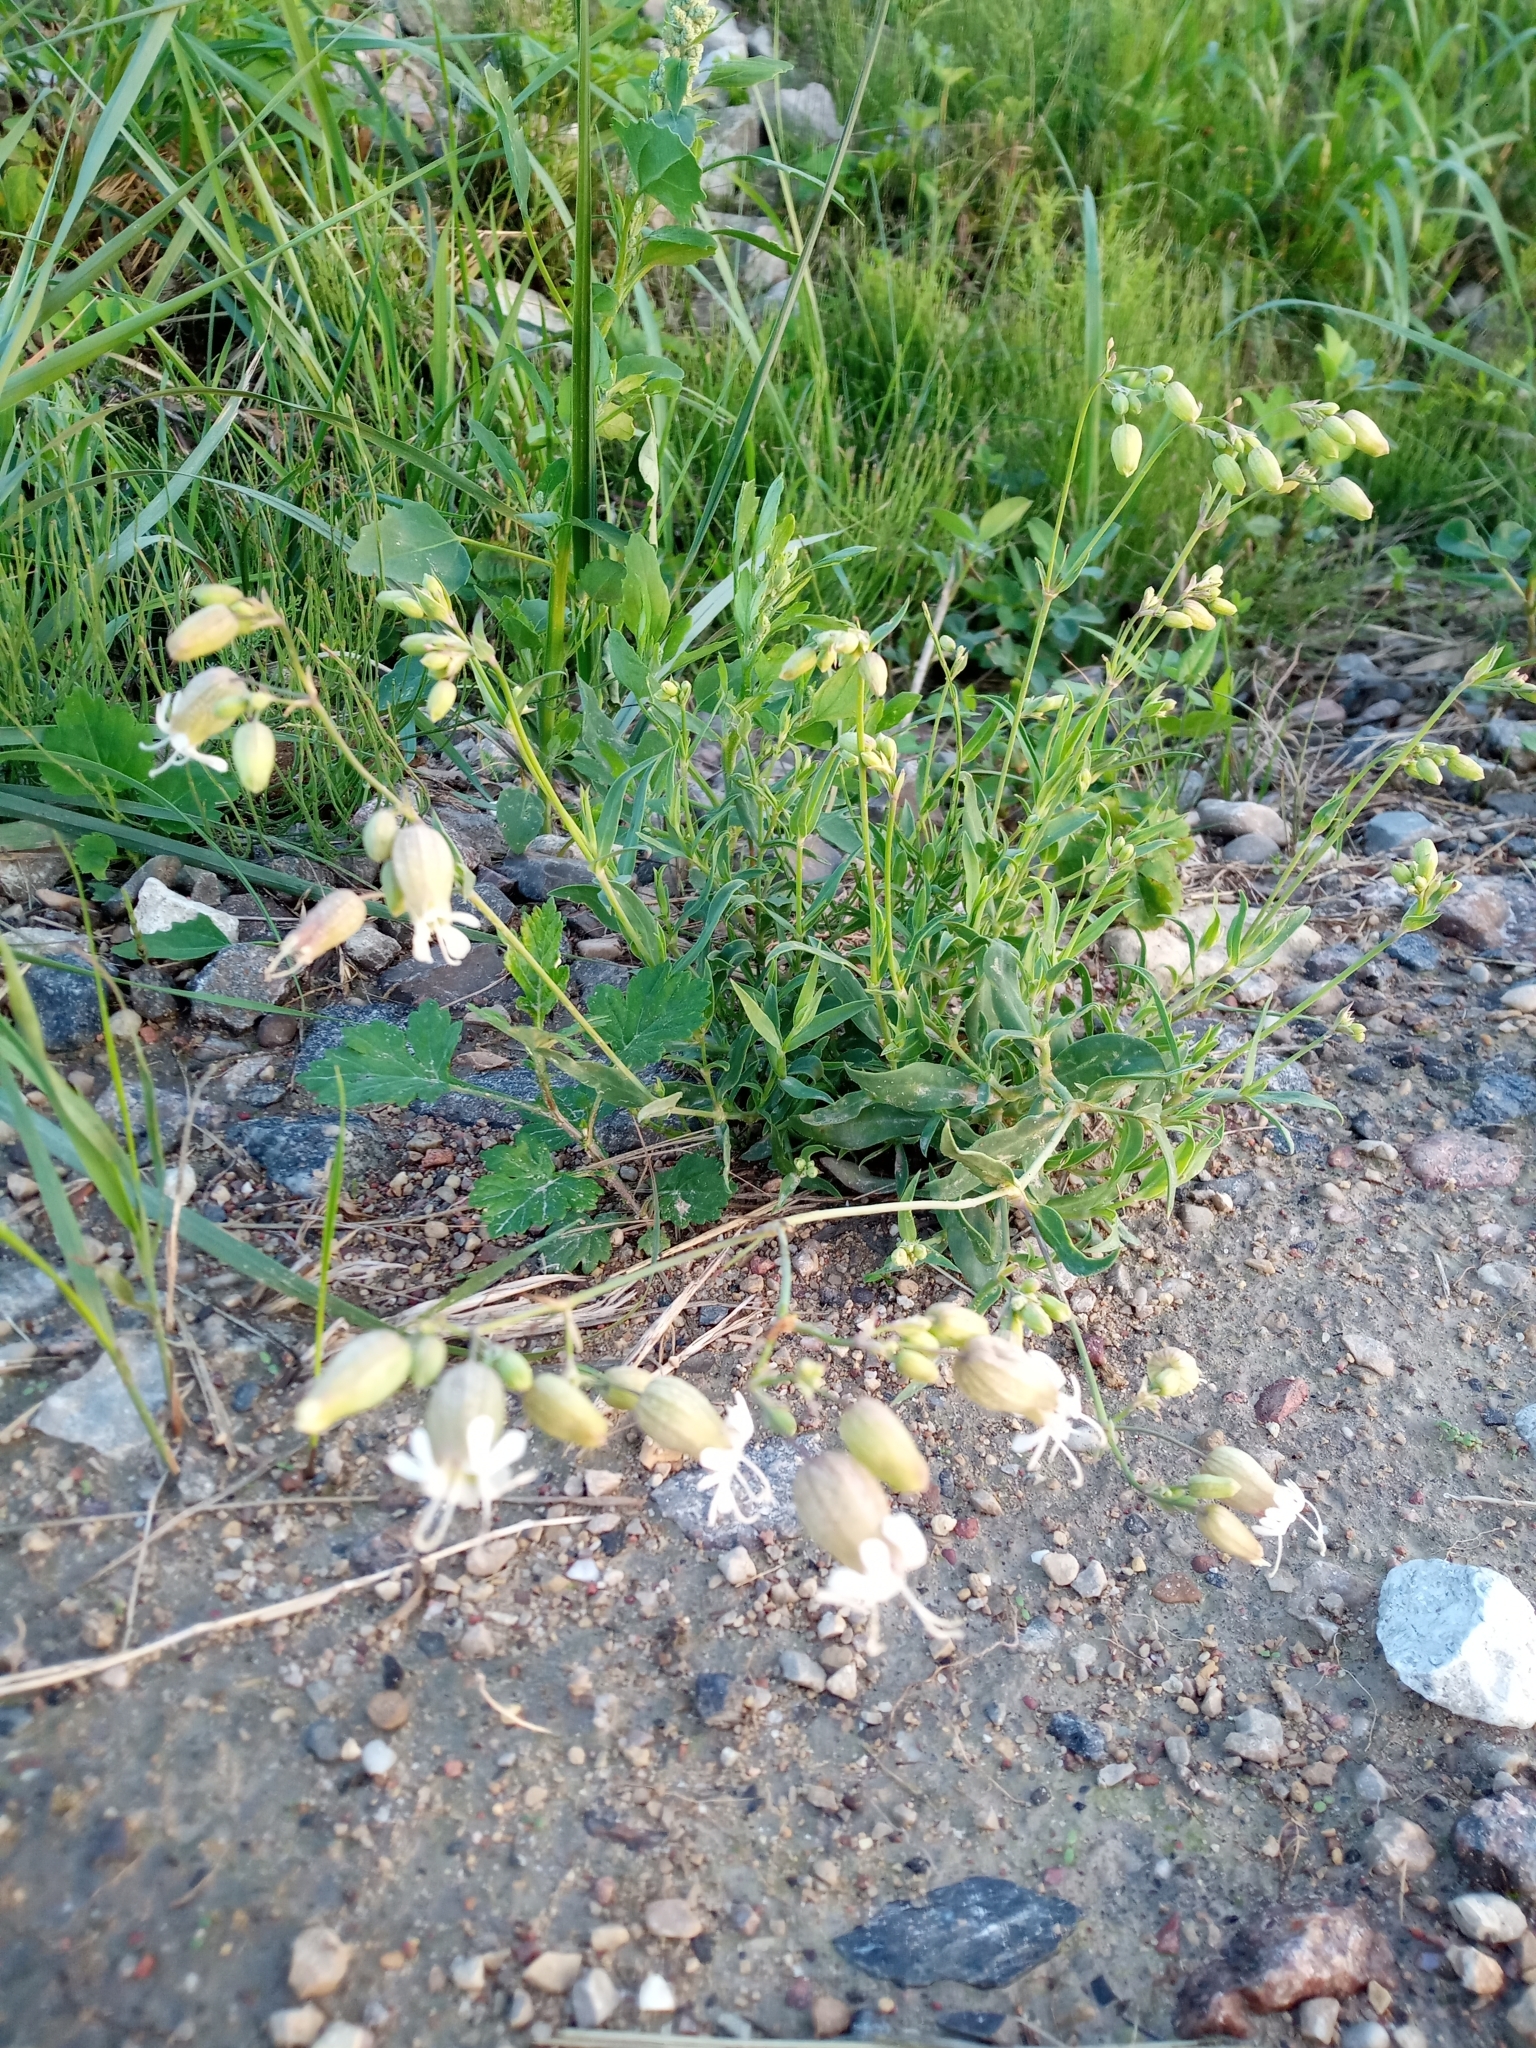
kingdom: Plantae
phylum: Tracheophyta
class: Magnoliopsida
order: Caryophyllales
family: Caryophyllaceae
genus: Silene
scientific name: Silene vulgaris
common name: Bladder campion
